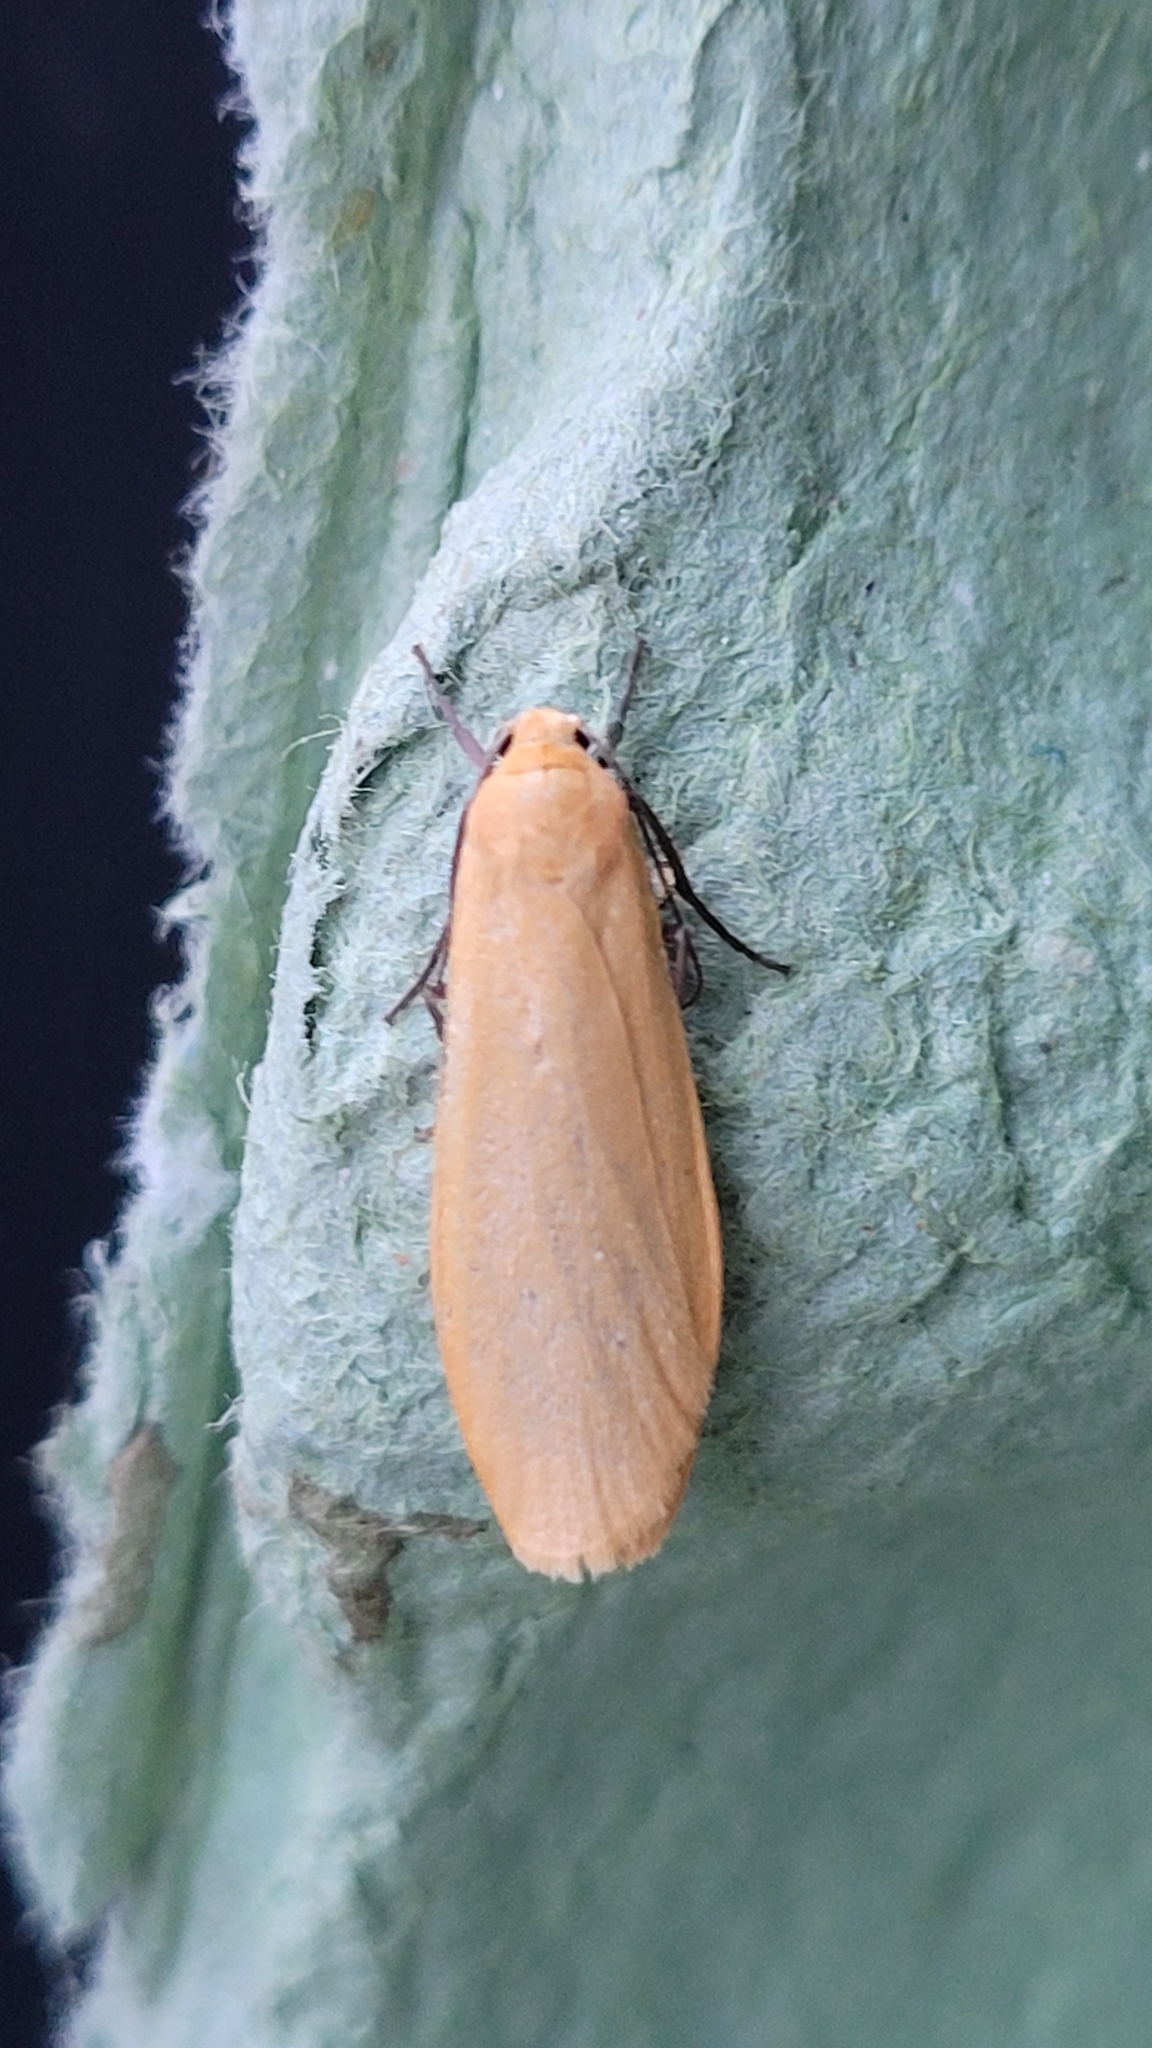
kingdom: Animalia
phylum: Arthropoda
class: Insecta
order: Lepidoptera
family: Erebidae
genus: Wittia
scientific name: Wittia sororcula
